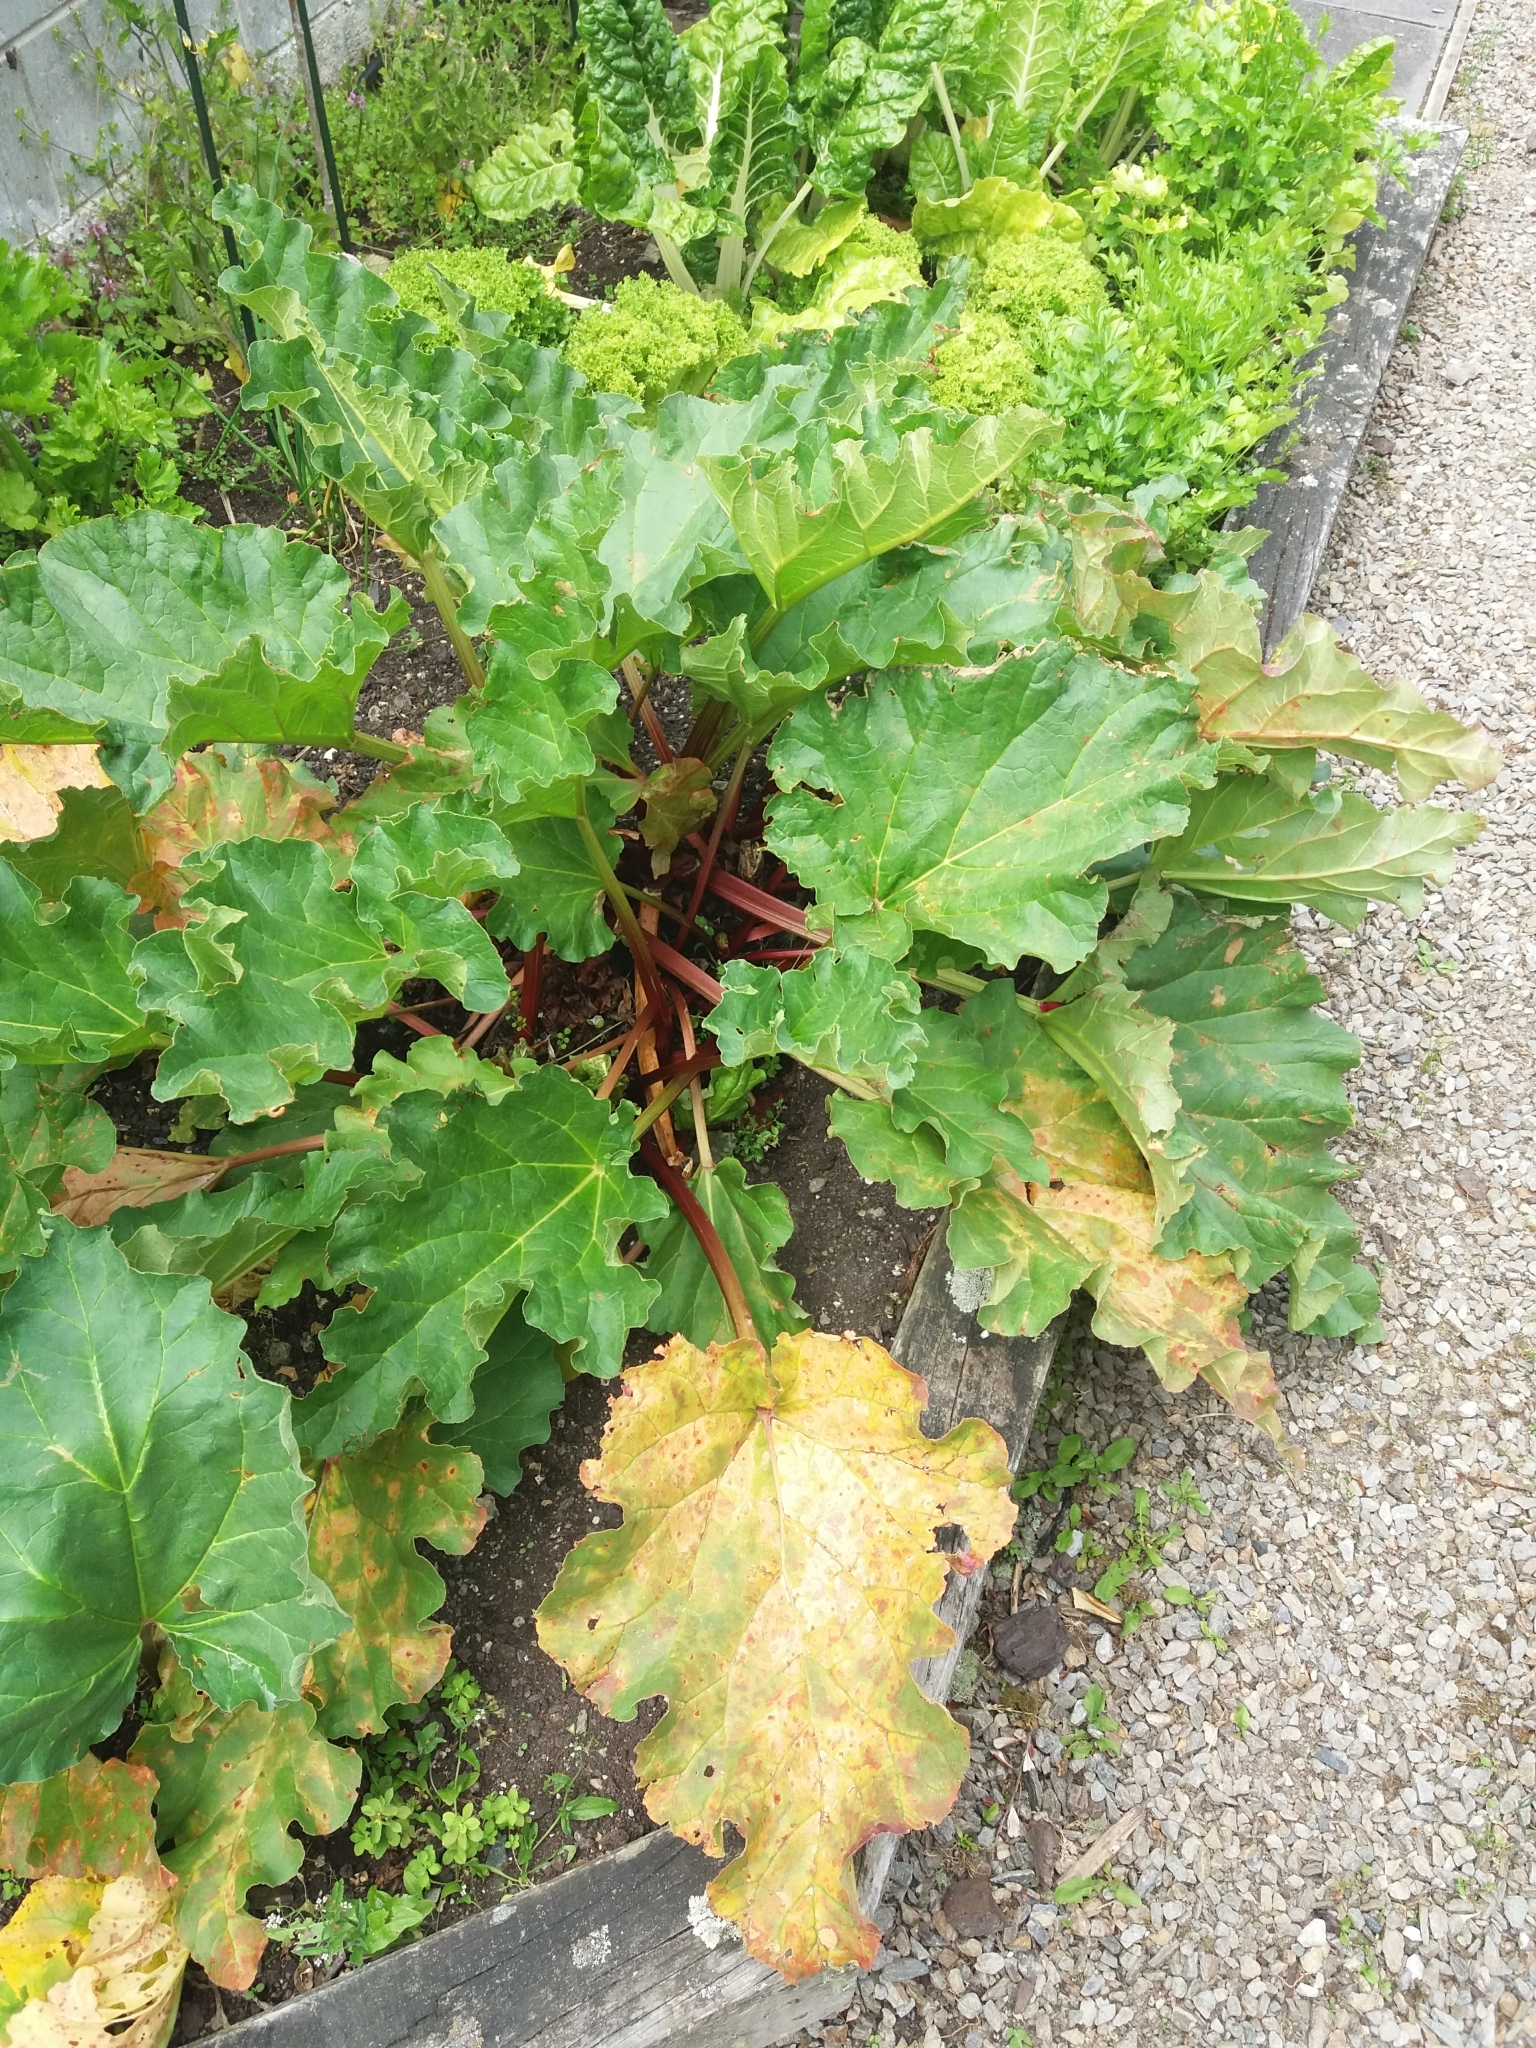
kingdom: Fungi
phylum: Basidiomycota
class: Pucciniomycetes
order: Pucciniales
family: Pucciniaceae
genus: Puccinia
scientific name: Puccinia otagensis
